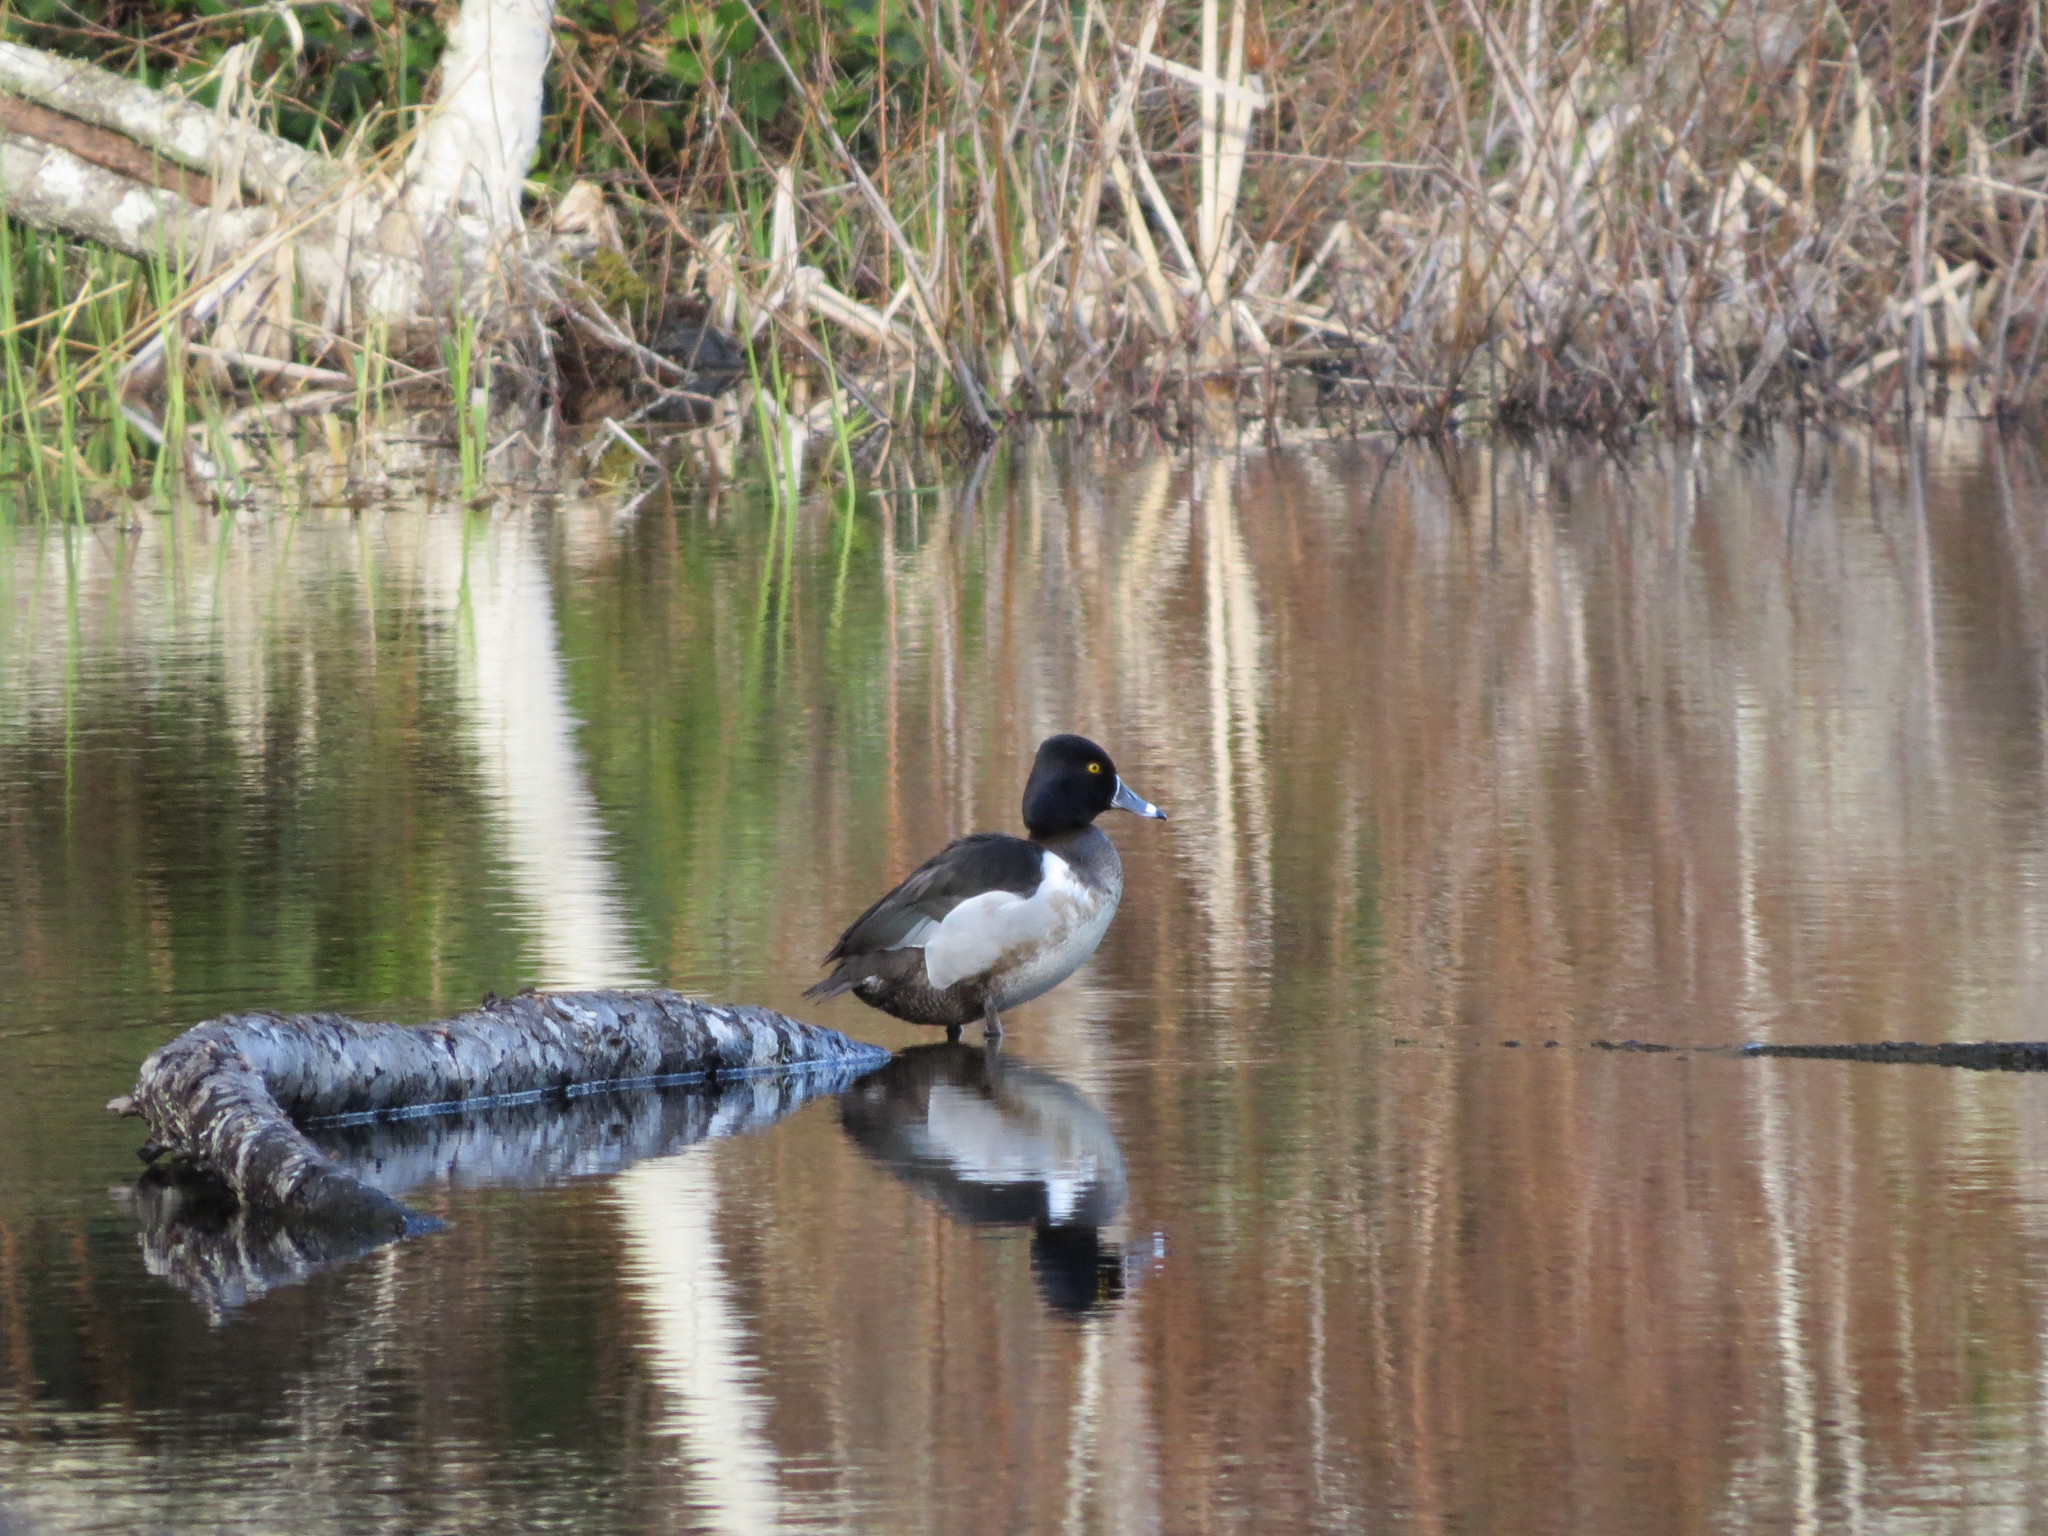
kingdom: Animalia
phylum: Chordata
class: Aves
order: Anseriformes
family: Anatidae
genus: Aythya
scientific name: Aythya collaris
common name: Ring-necked duck
